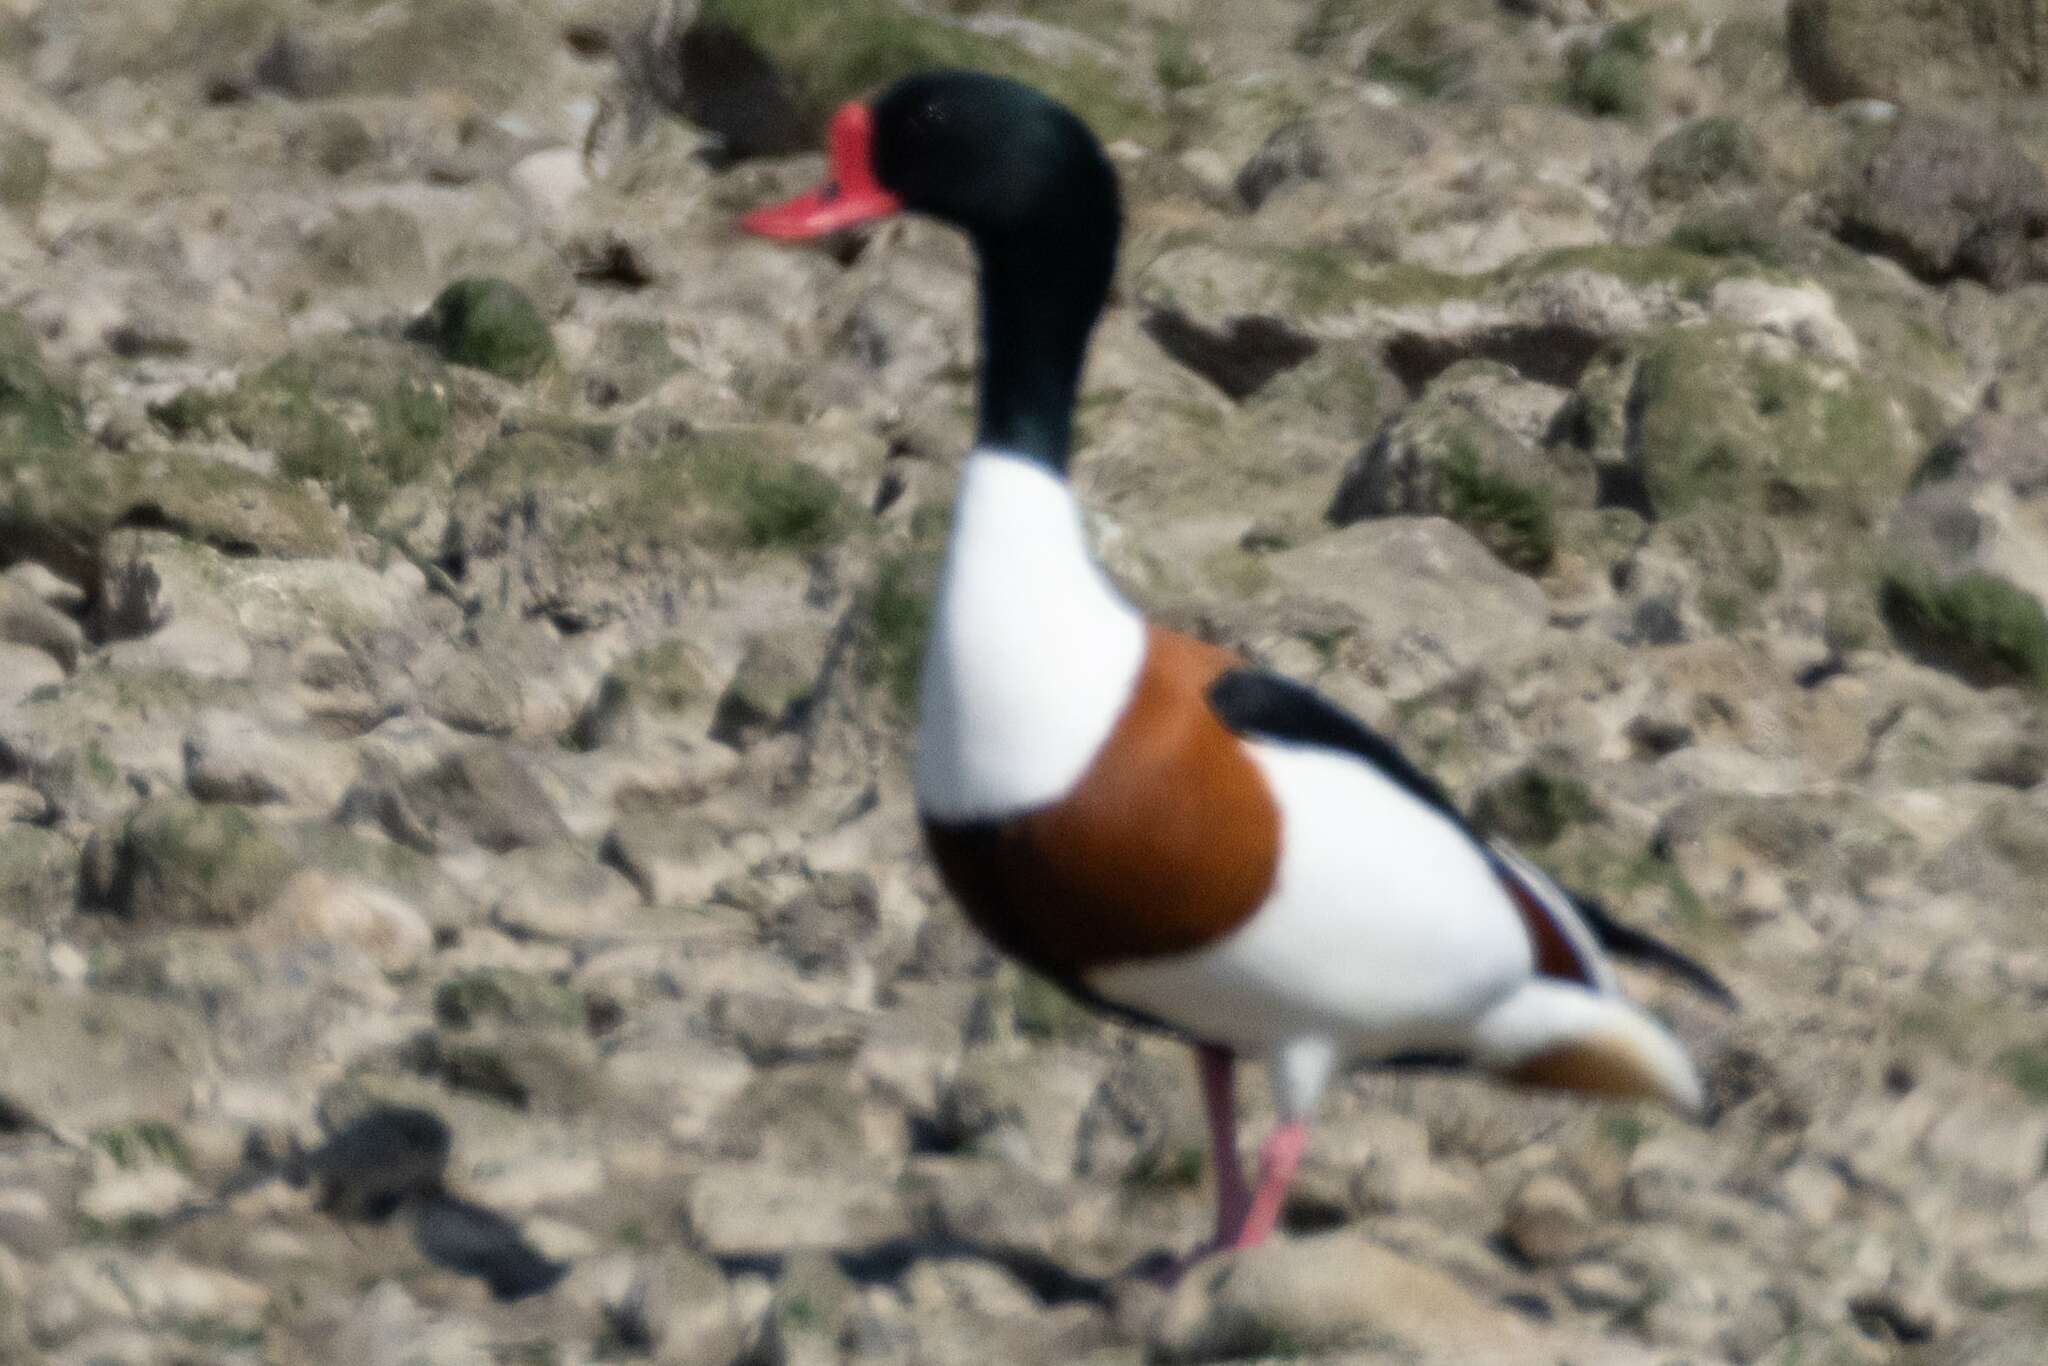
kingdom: Animalia
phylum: Chordata
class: Aves
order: Anseriformes
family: Anatidae
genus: Tadorna
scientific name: Tadorna tadorna
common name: Common shelduck
